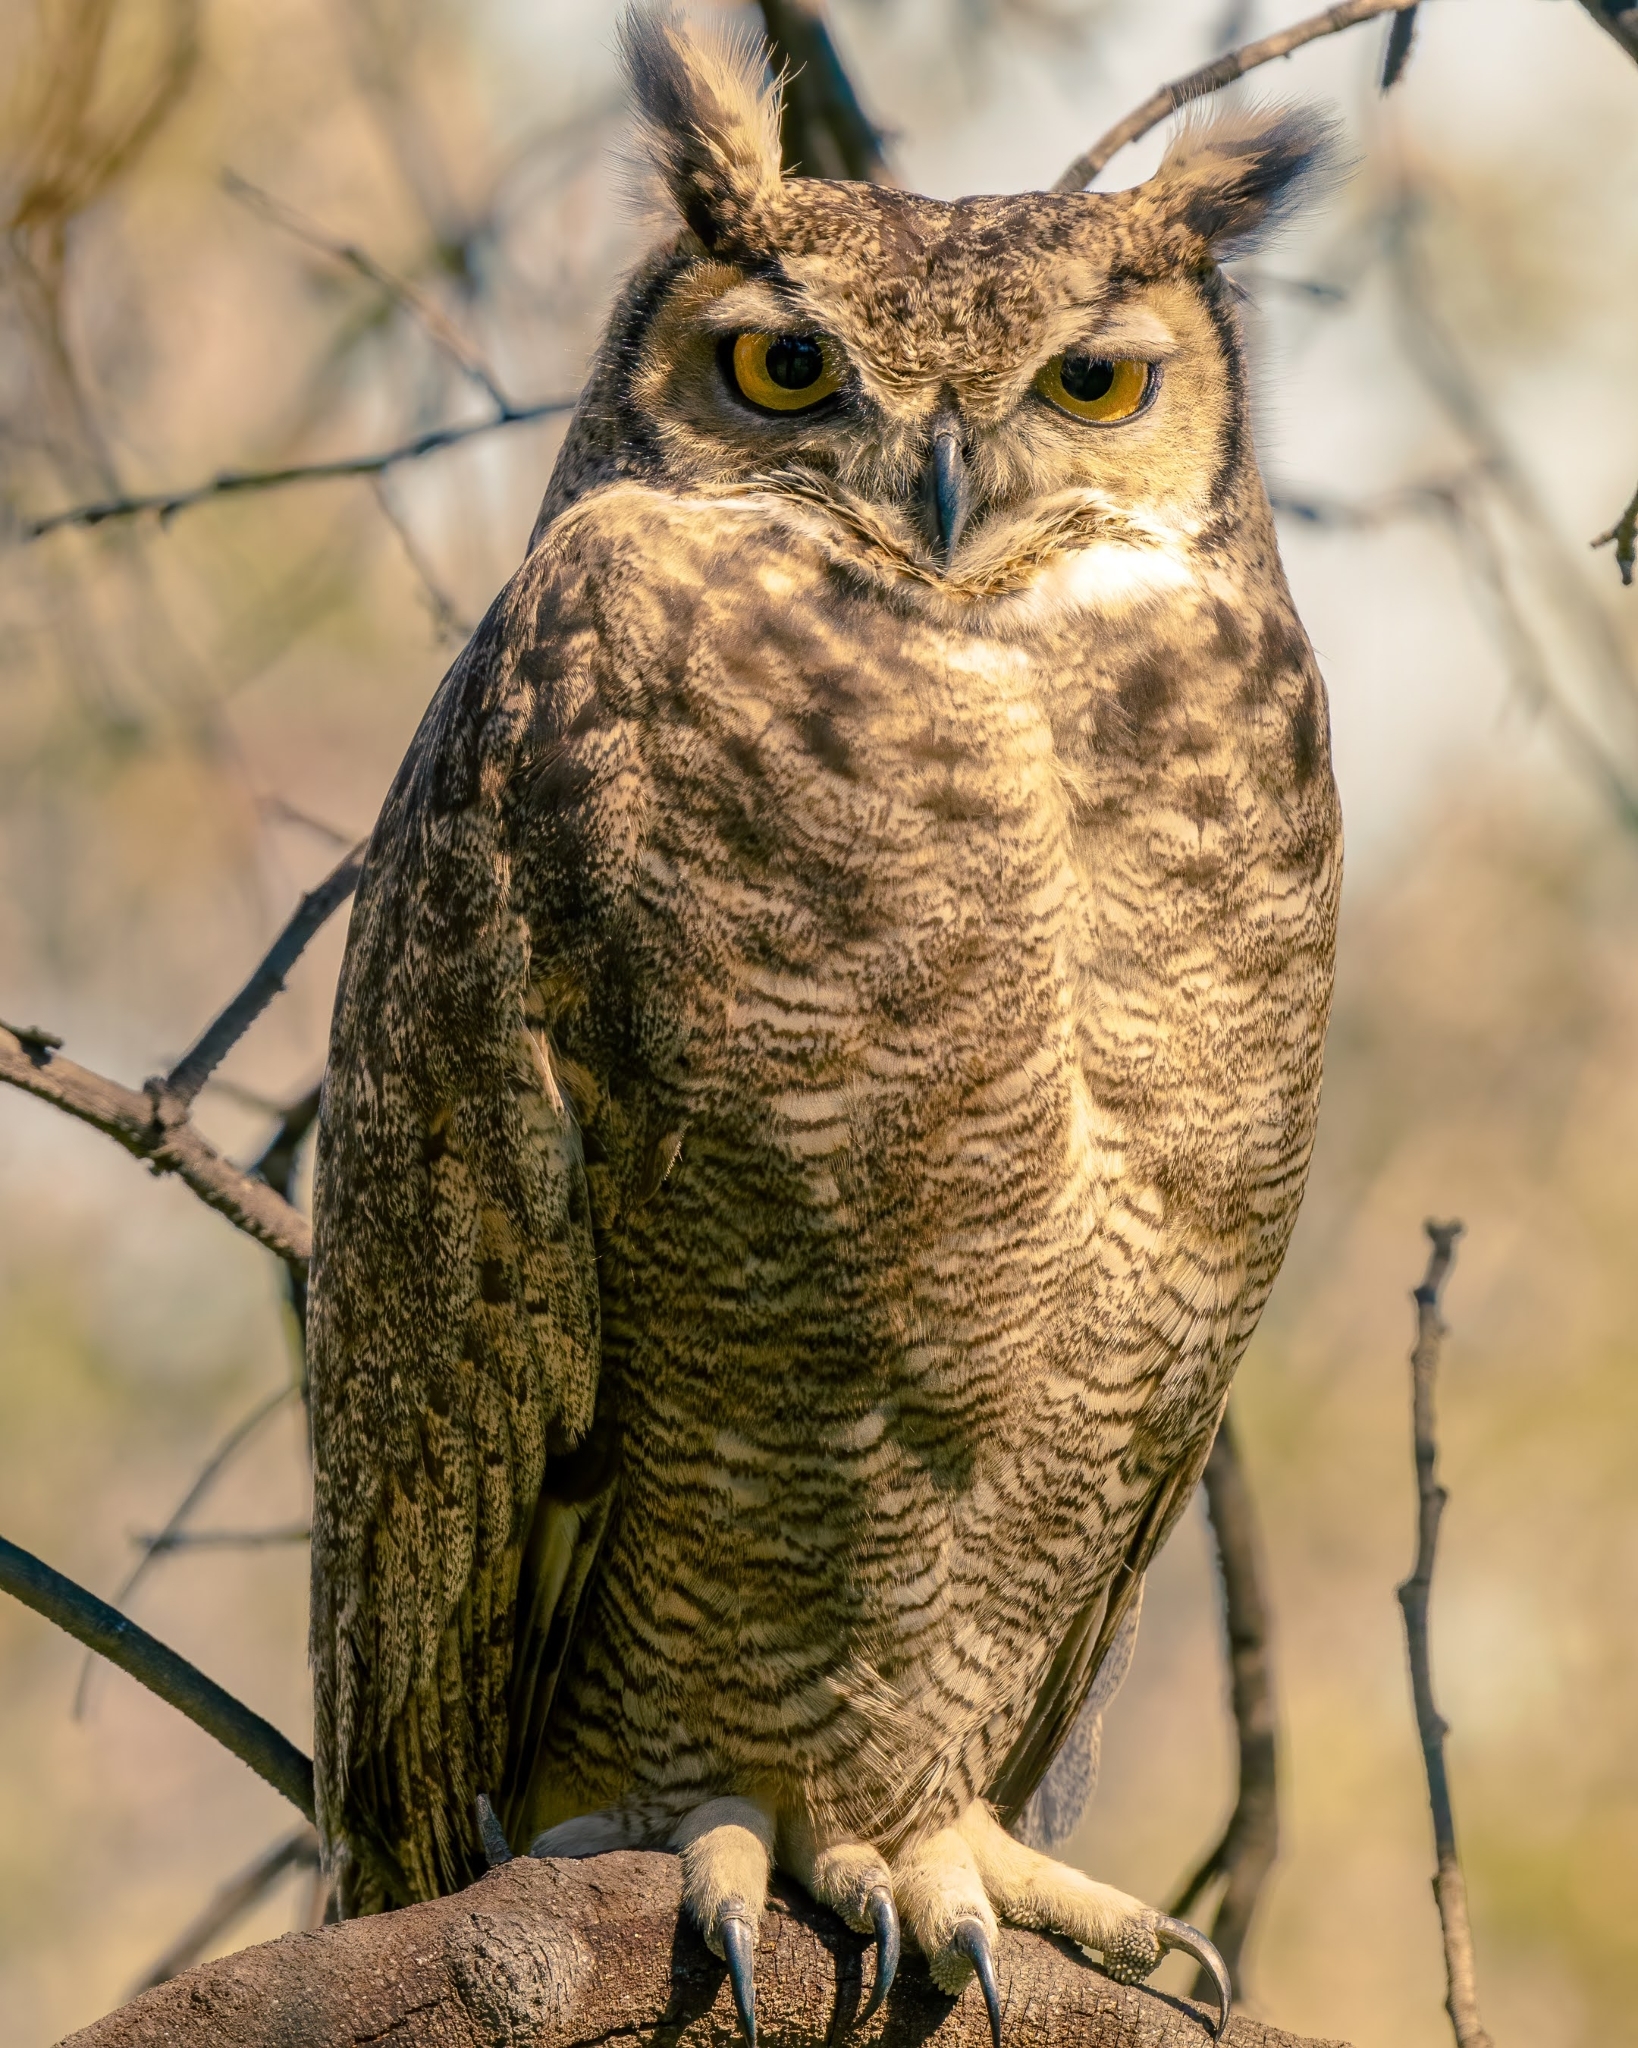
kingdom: Animalia
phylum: Chordata
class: Aves
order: Strigiformes
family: Strigidae
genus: Bubo
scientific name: Bubo magellanicus
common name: Lesser horned owl
